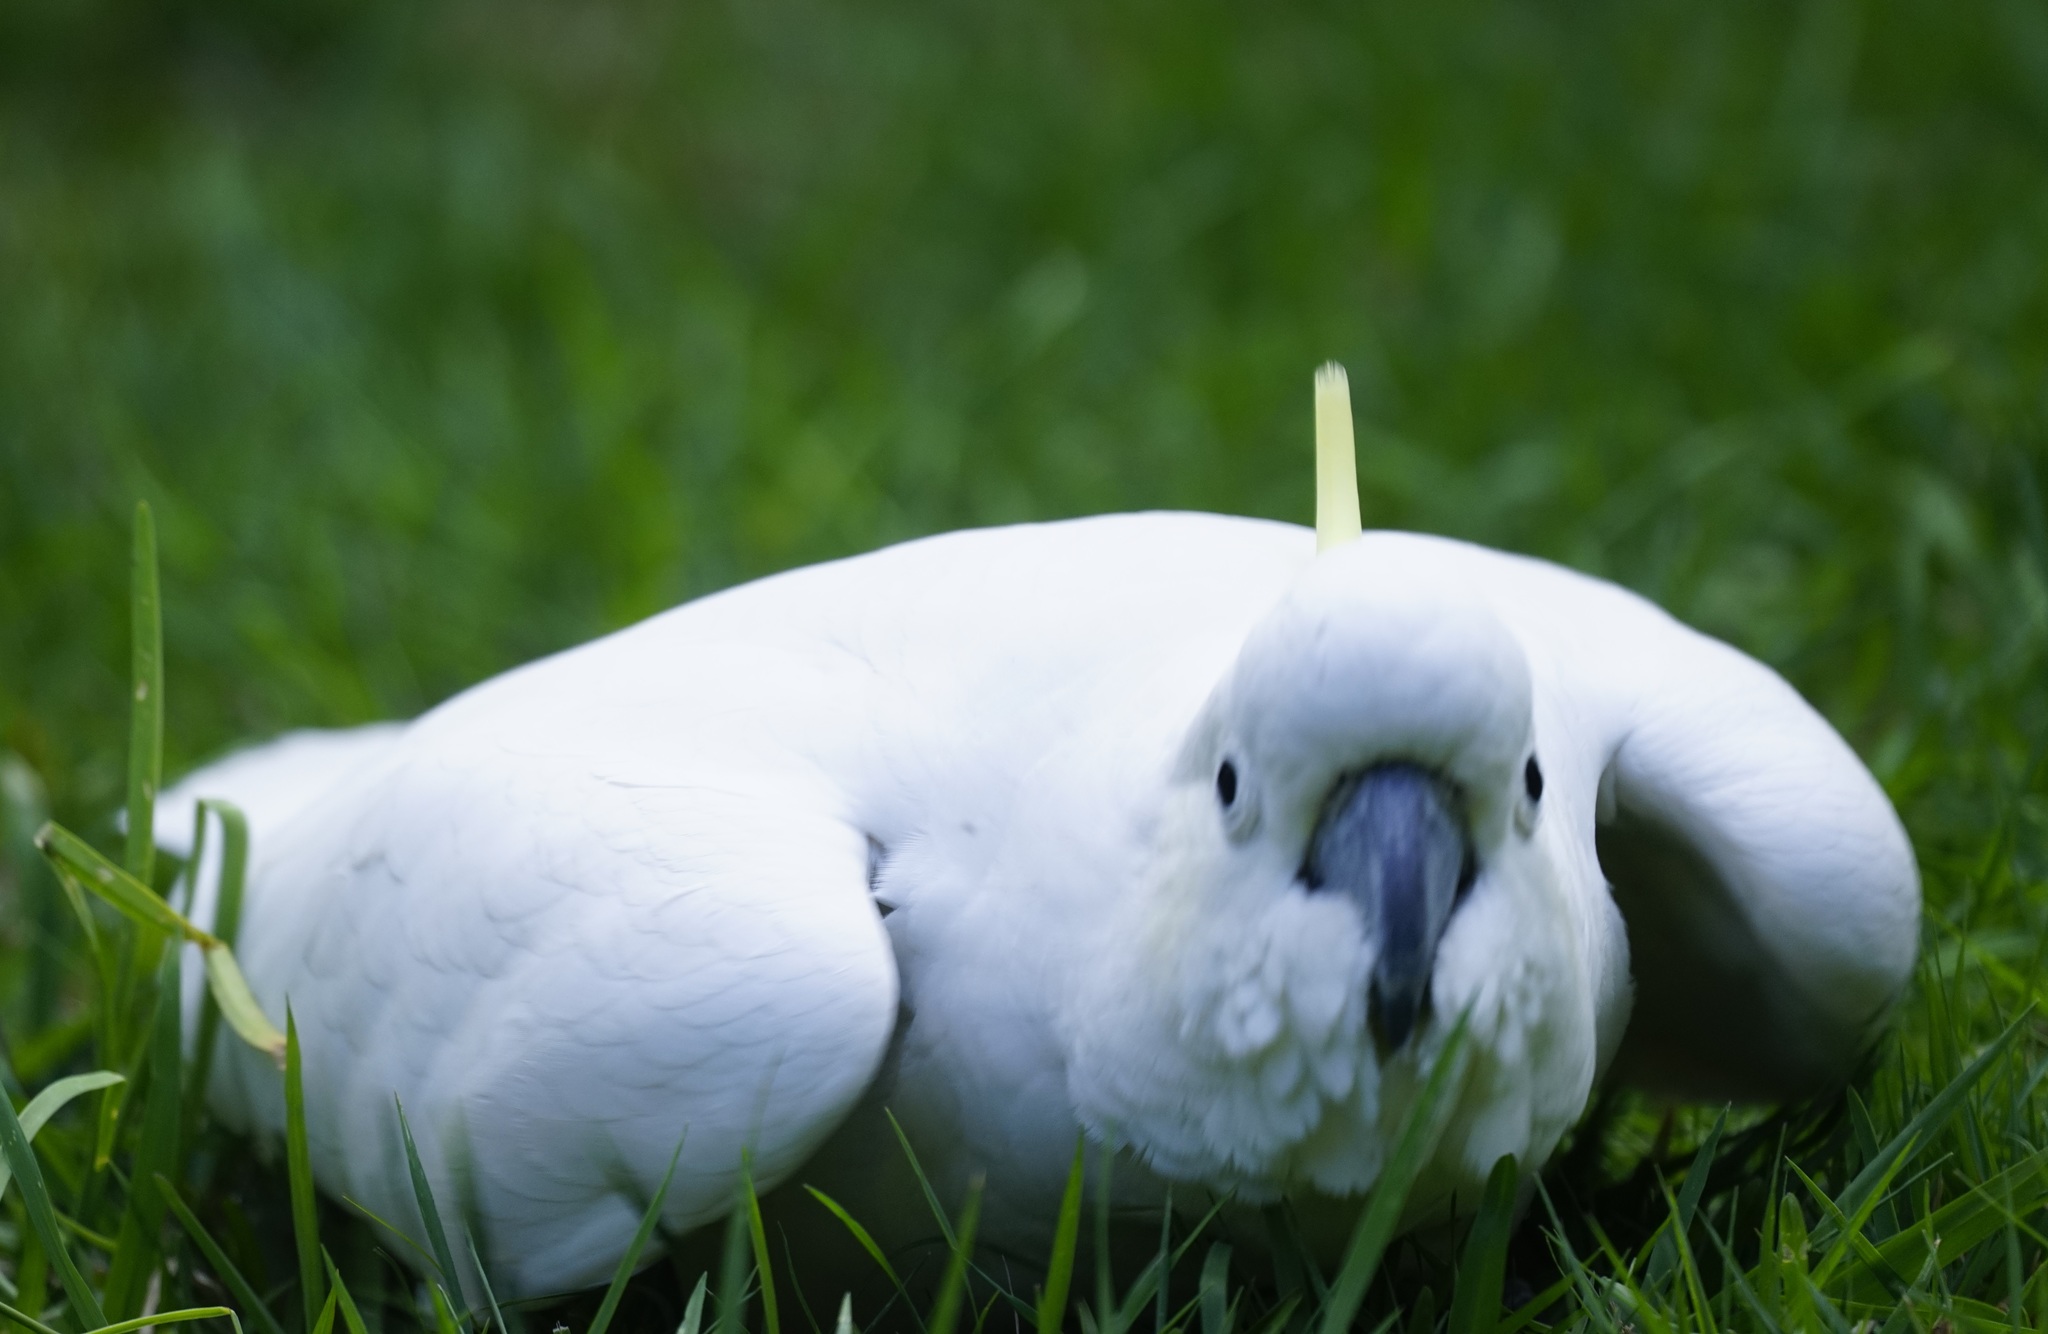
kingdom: Animalia
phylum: Chordata
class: Aves
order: Psittaciformes
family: Psittacidae
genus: Cacatua
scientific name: Cacatua galerita
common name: Sulphur-crested cockatoo
